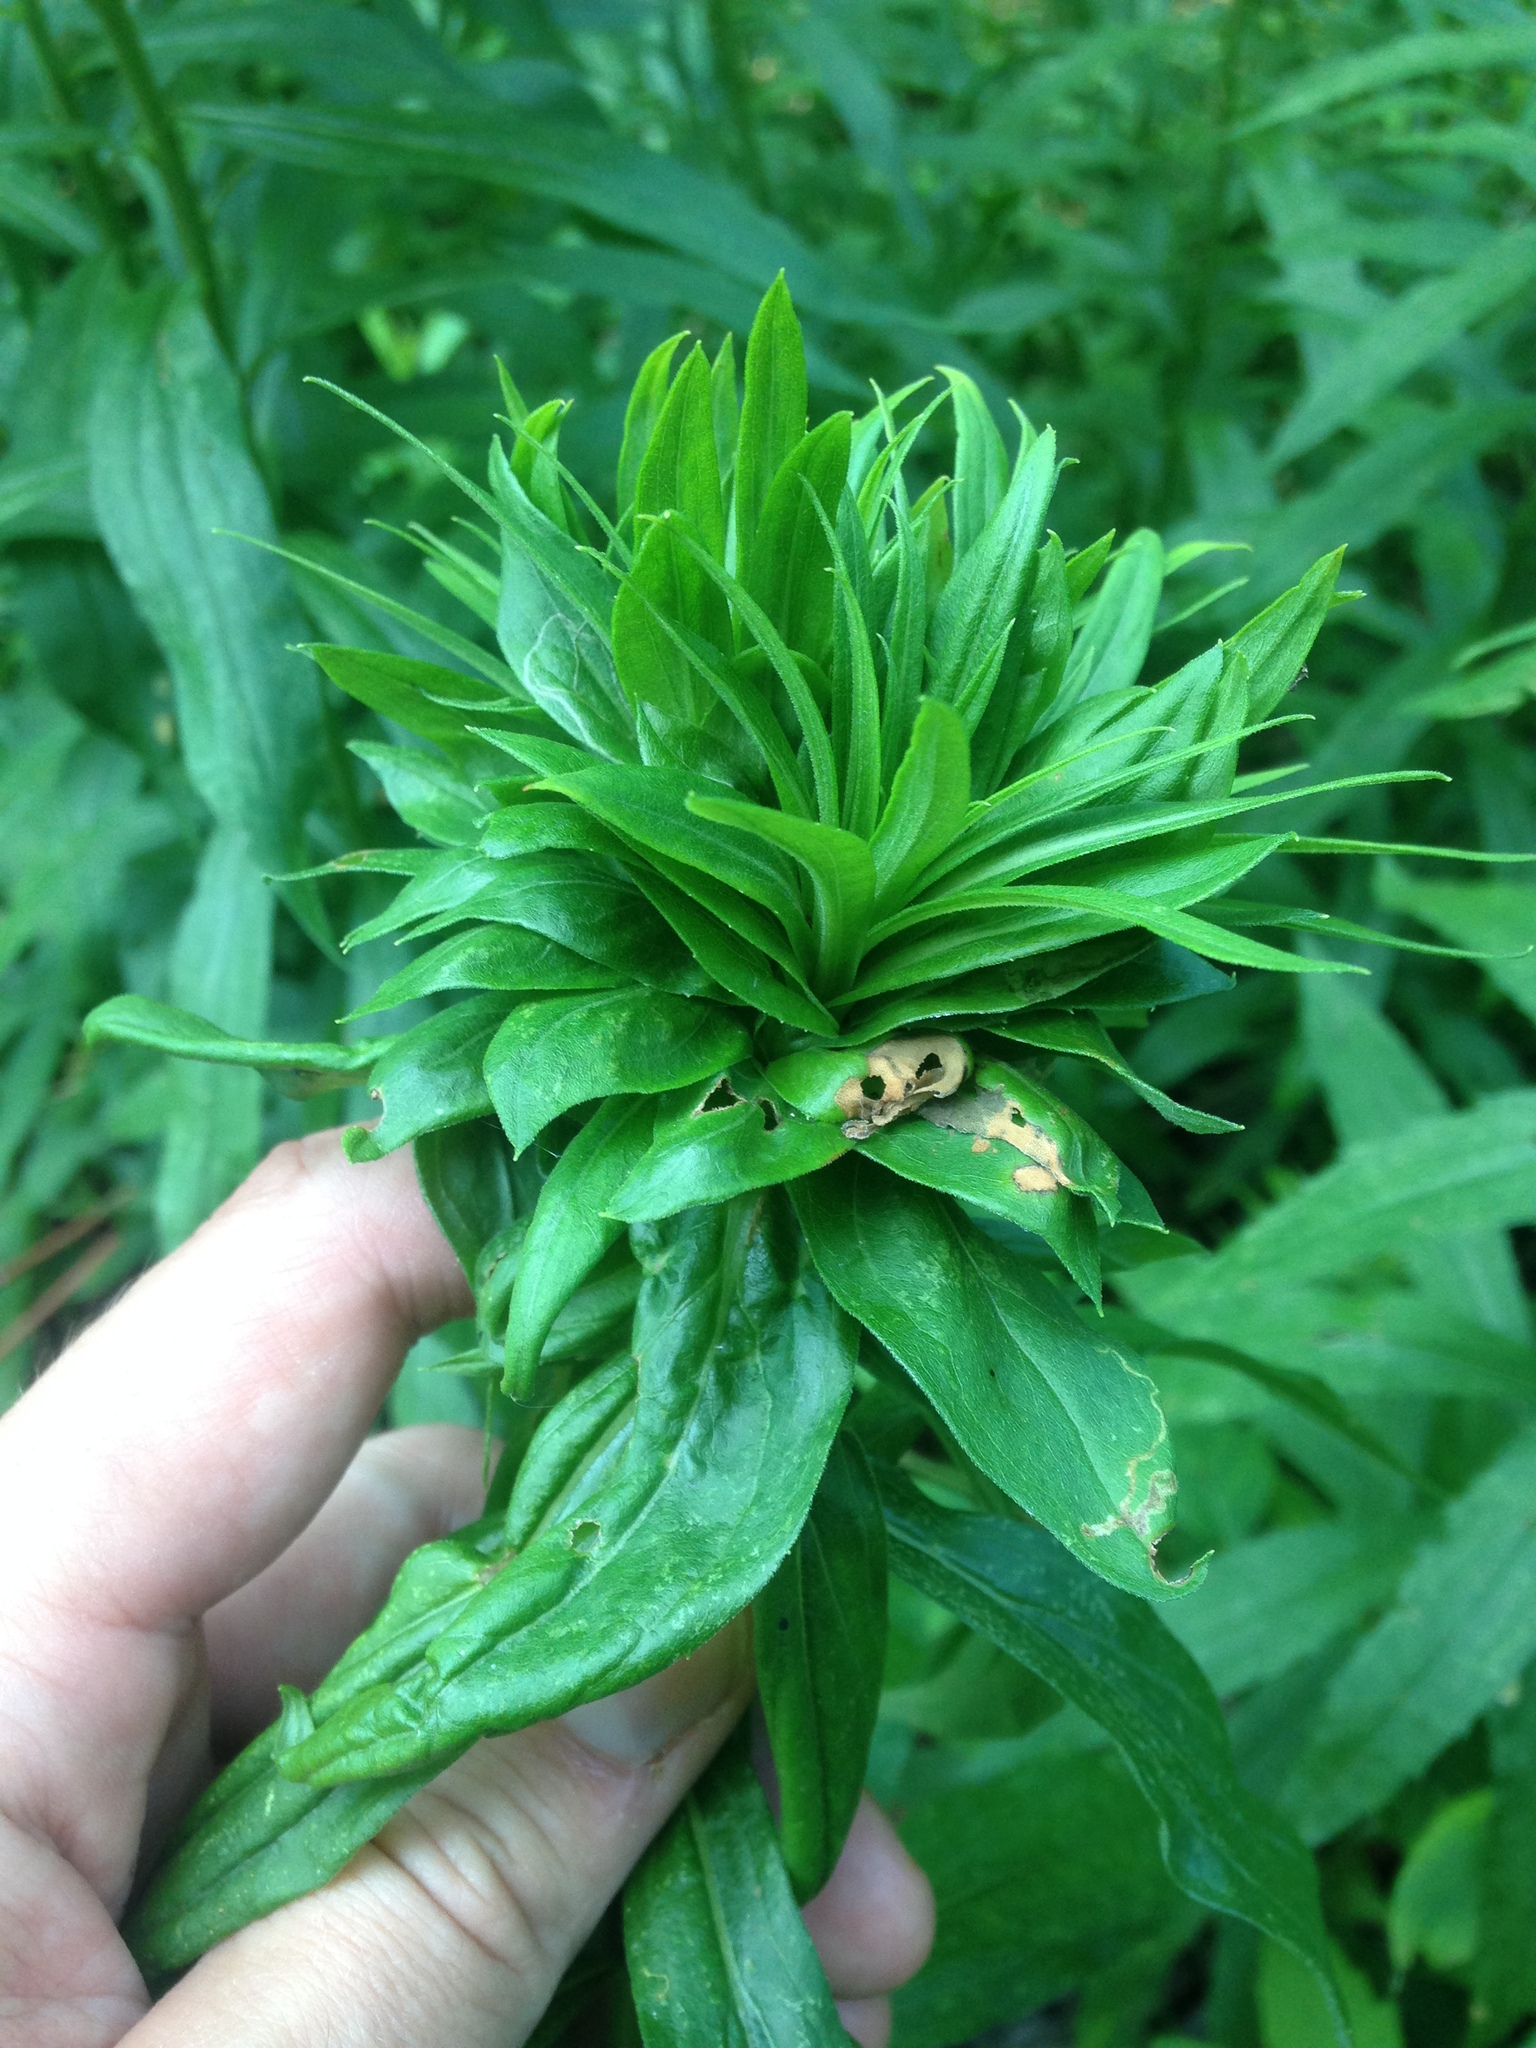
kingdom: Animalia
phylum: Arthropoda
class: Insecta
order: Diptera
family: Cecidomyiidae
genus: Rhopalomyia
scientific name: Rhopalomyia solidaginis
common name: Goldenrod bunch gall midge
